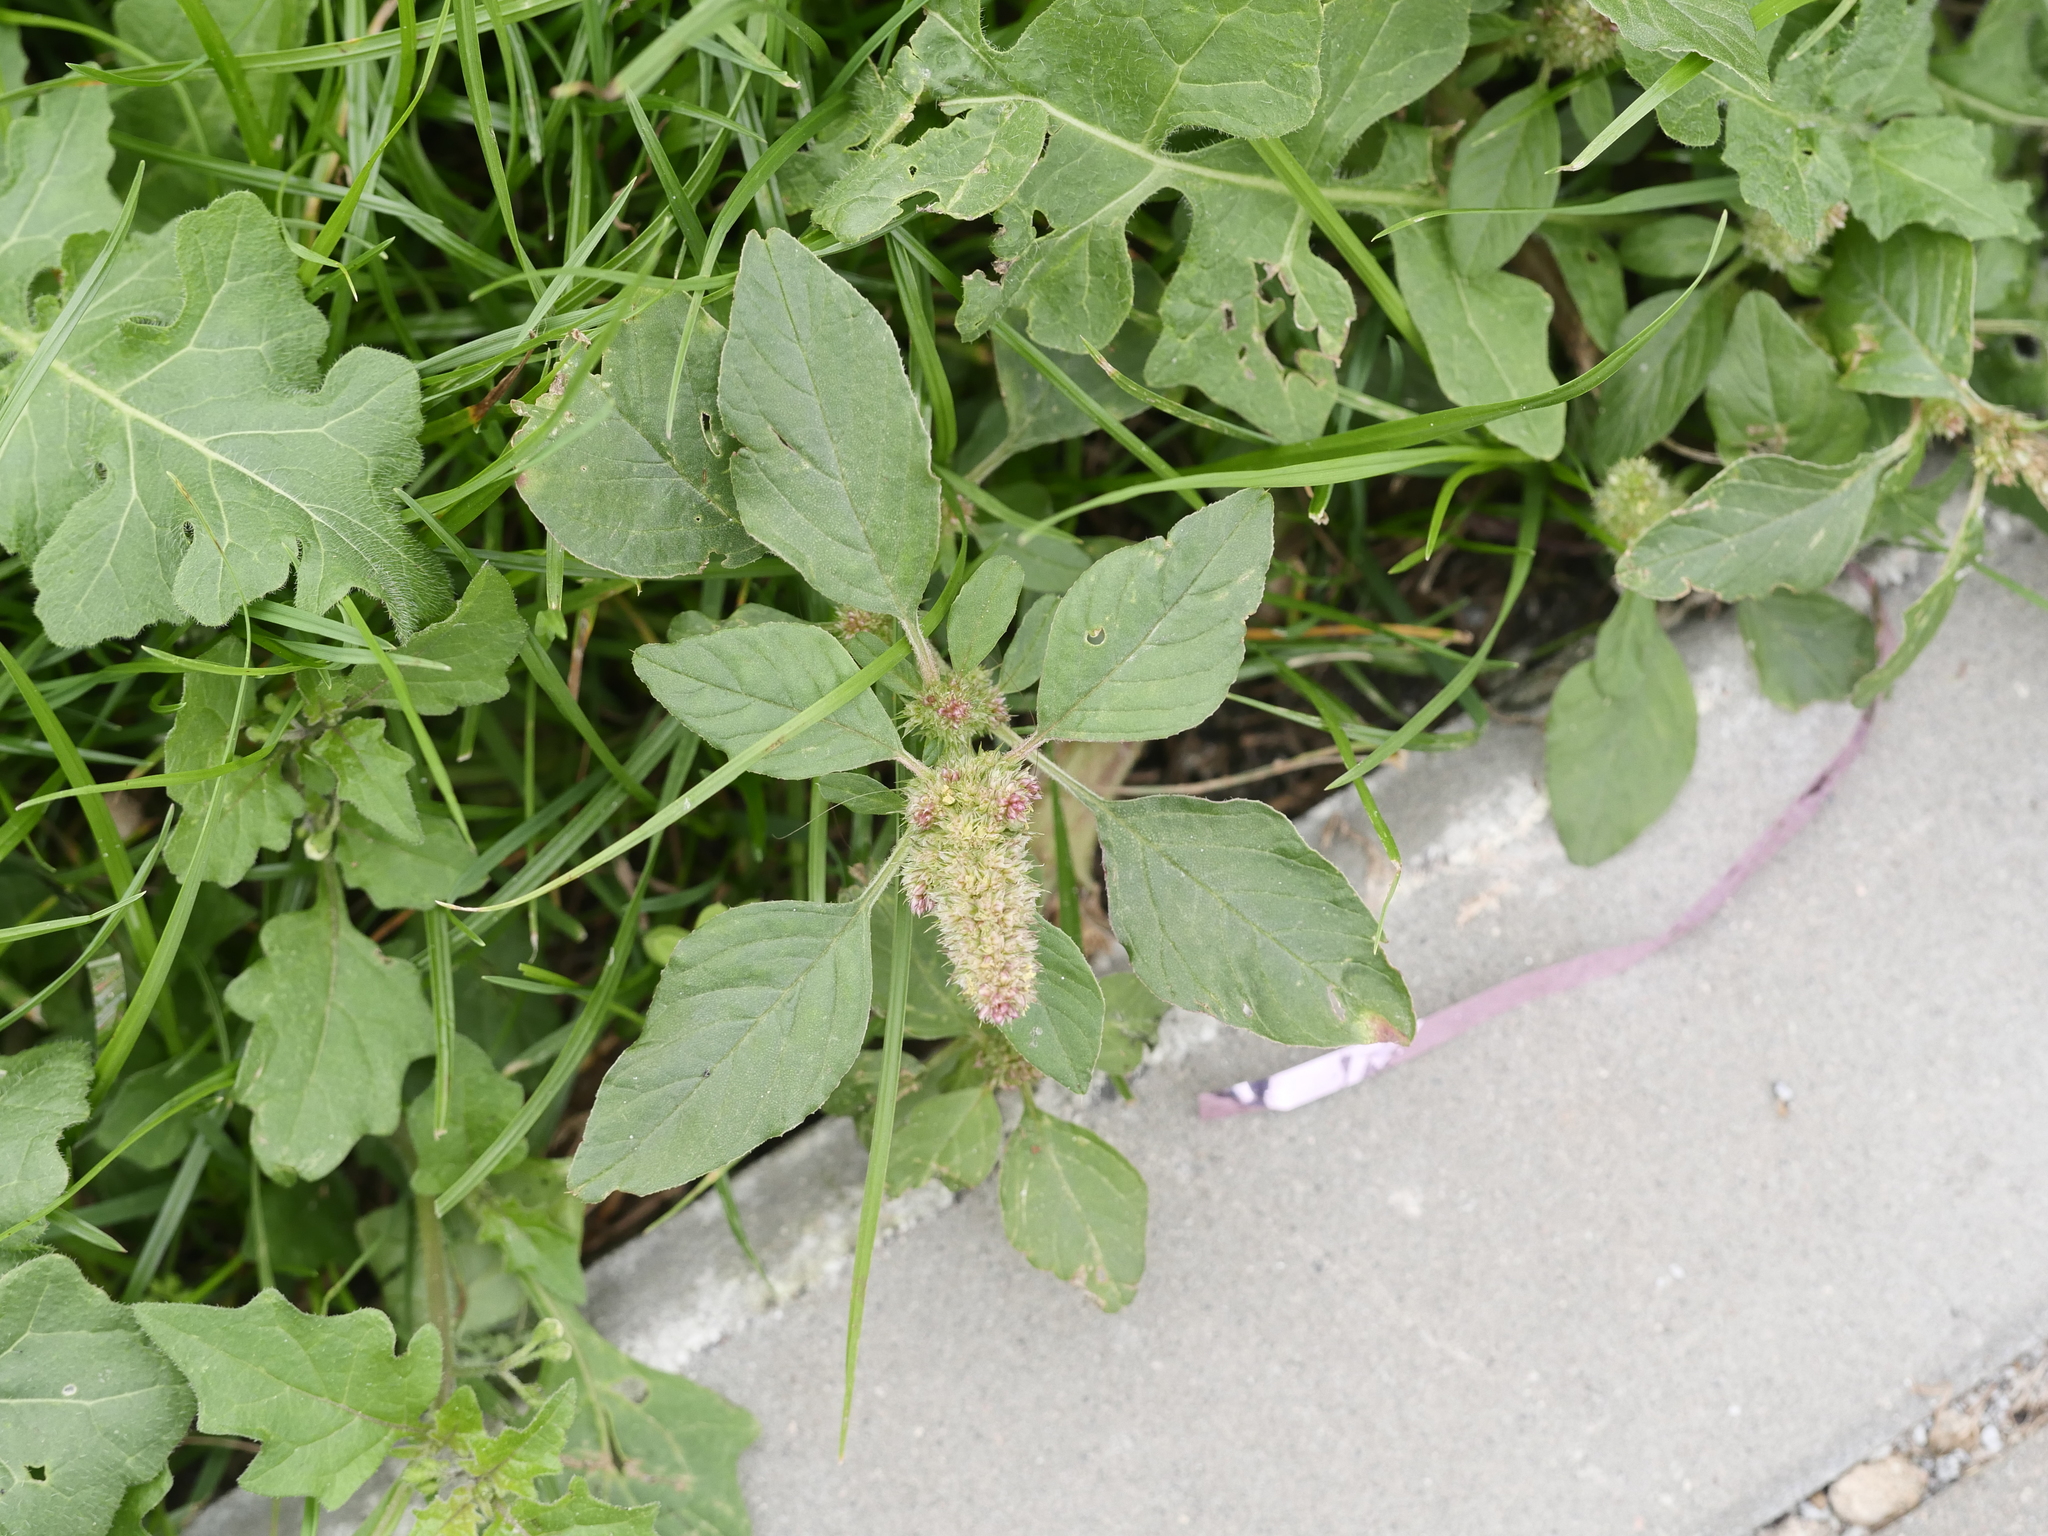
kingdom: Plantae
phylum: Tracheophyta
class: Magnoliopsida
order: Caryophyllales
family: Amaranthaceae
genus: Amaranthus
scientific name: Amaranthus retroflexus
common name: Redroot amaranth
